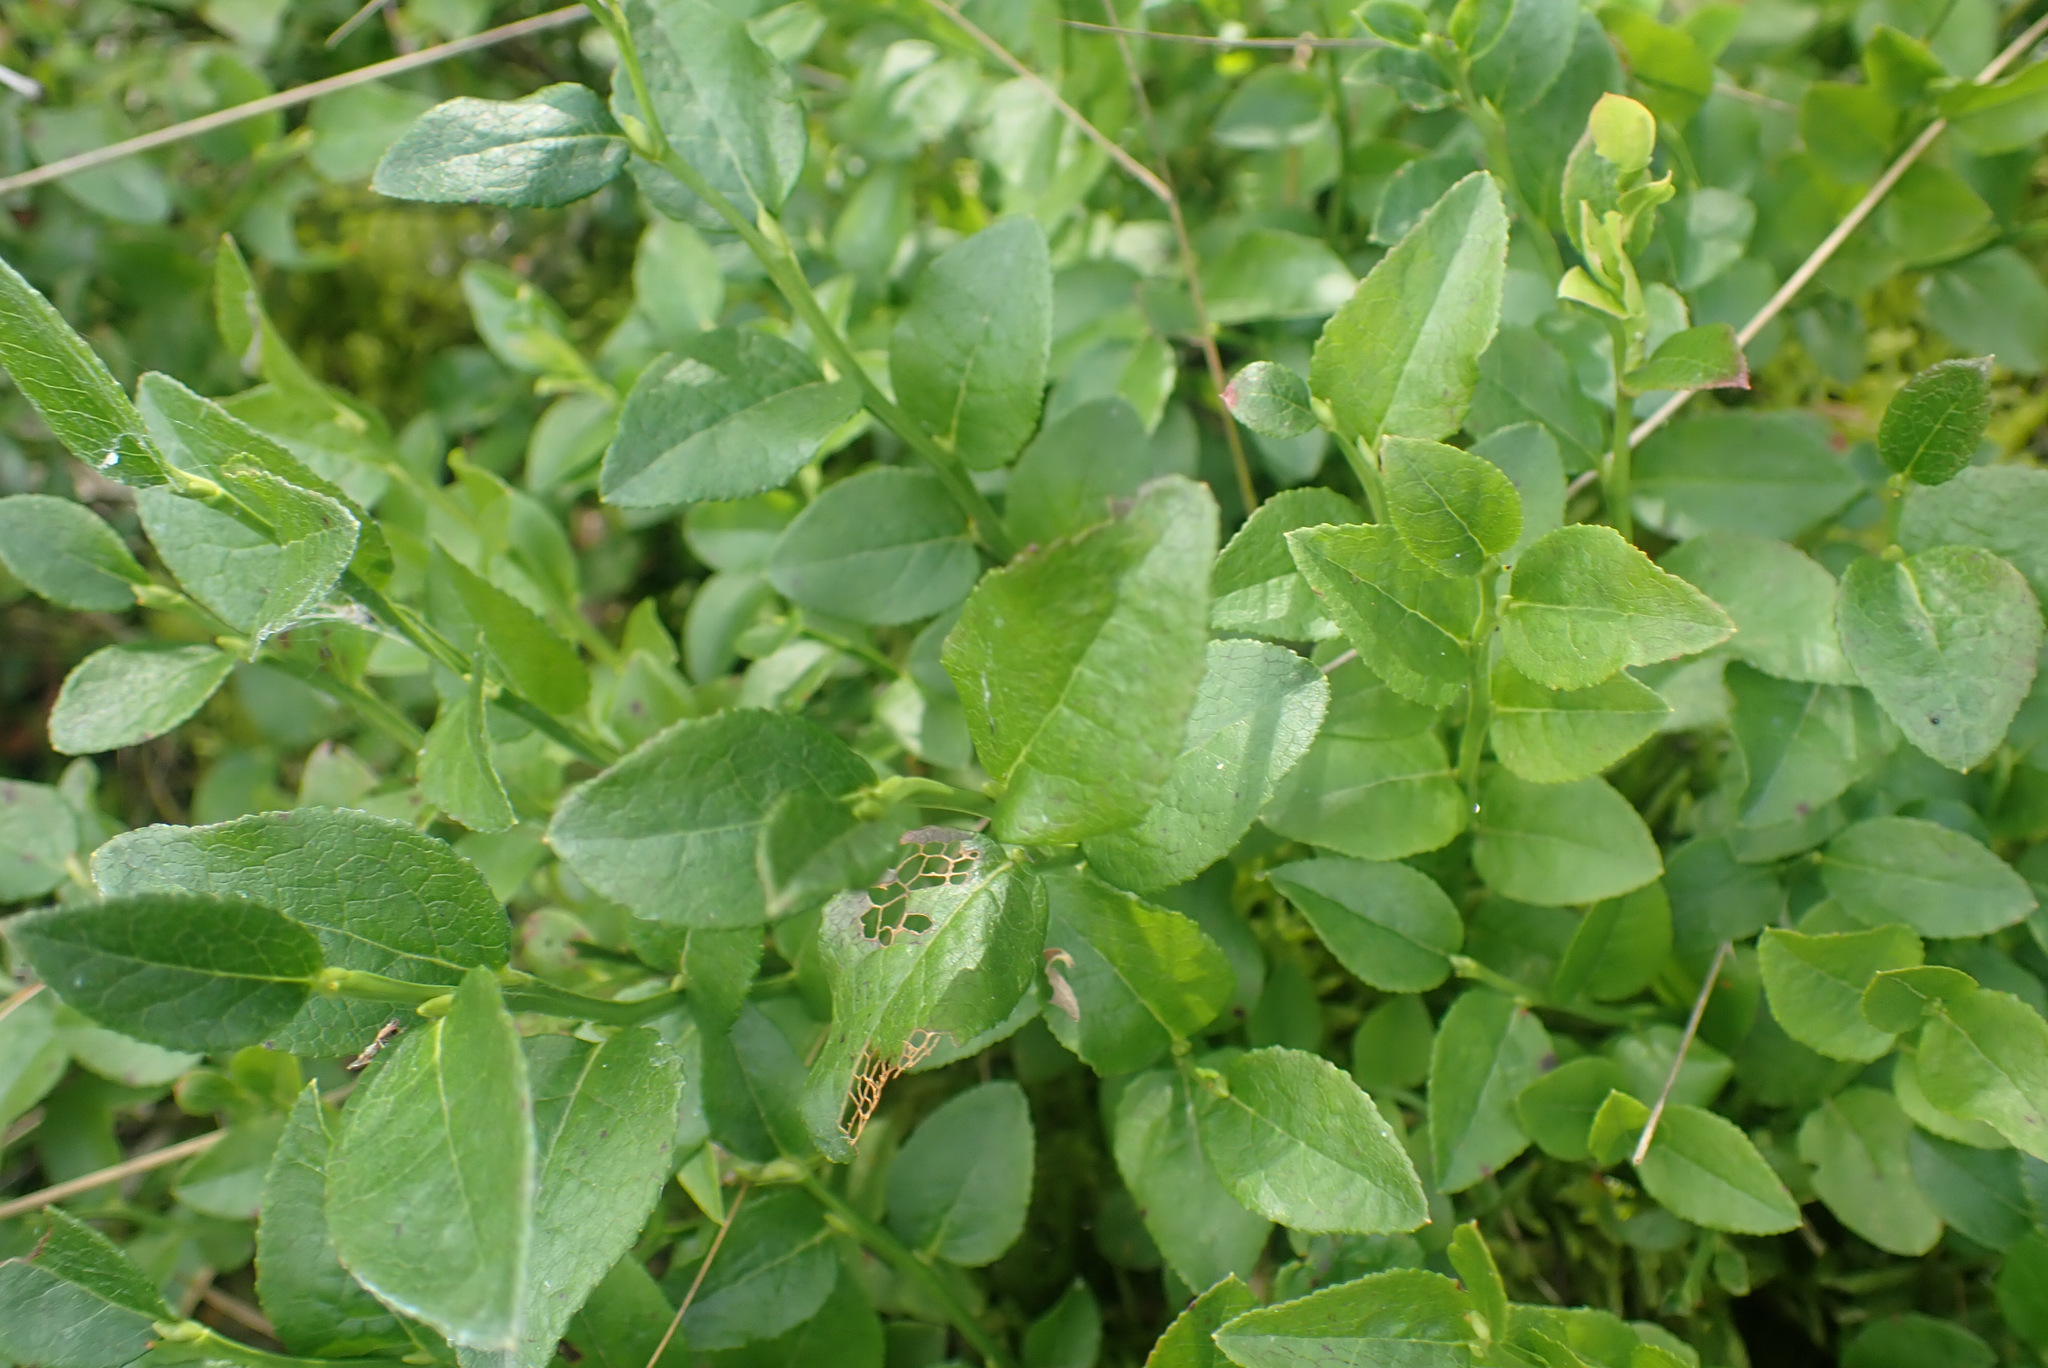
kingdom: Plantae
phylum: Tracheophyta
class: Magnoliopsida
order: Ericales
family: Ericaceae
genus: Vaccinium
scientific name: Vaccinium myrtillus
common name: Bilberry
